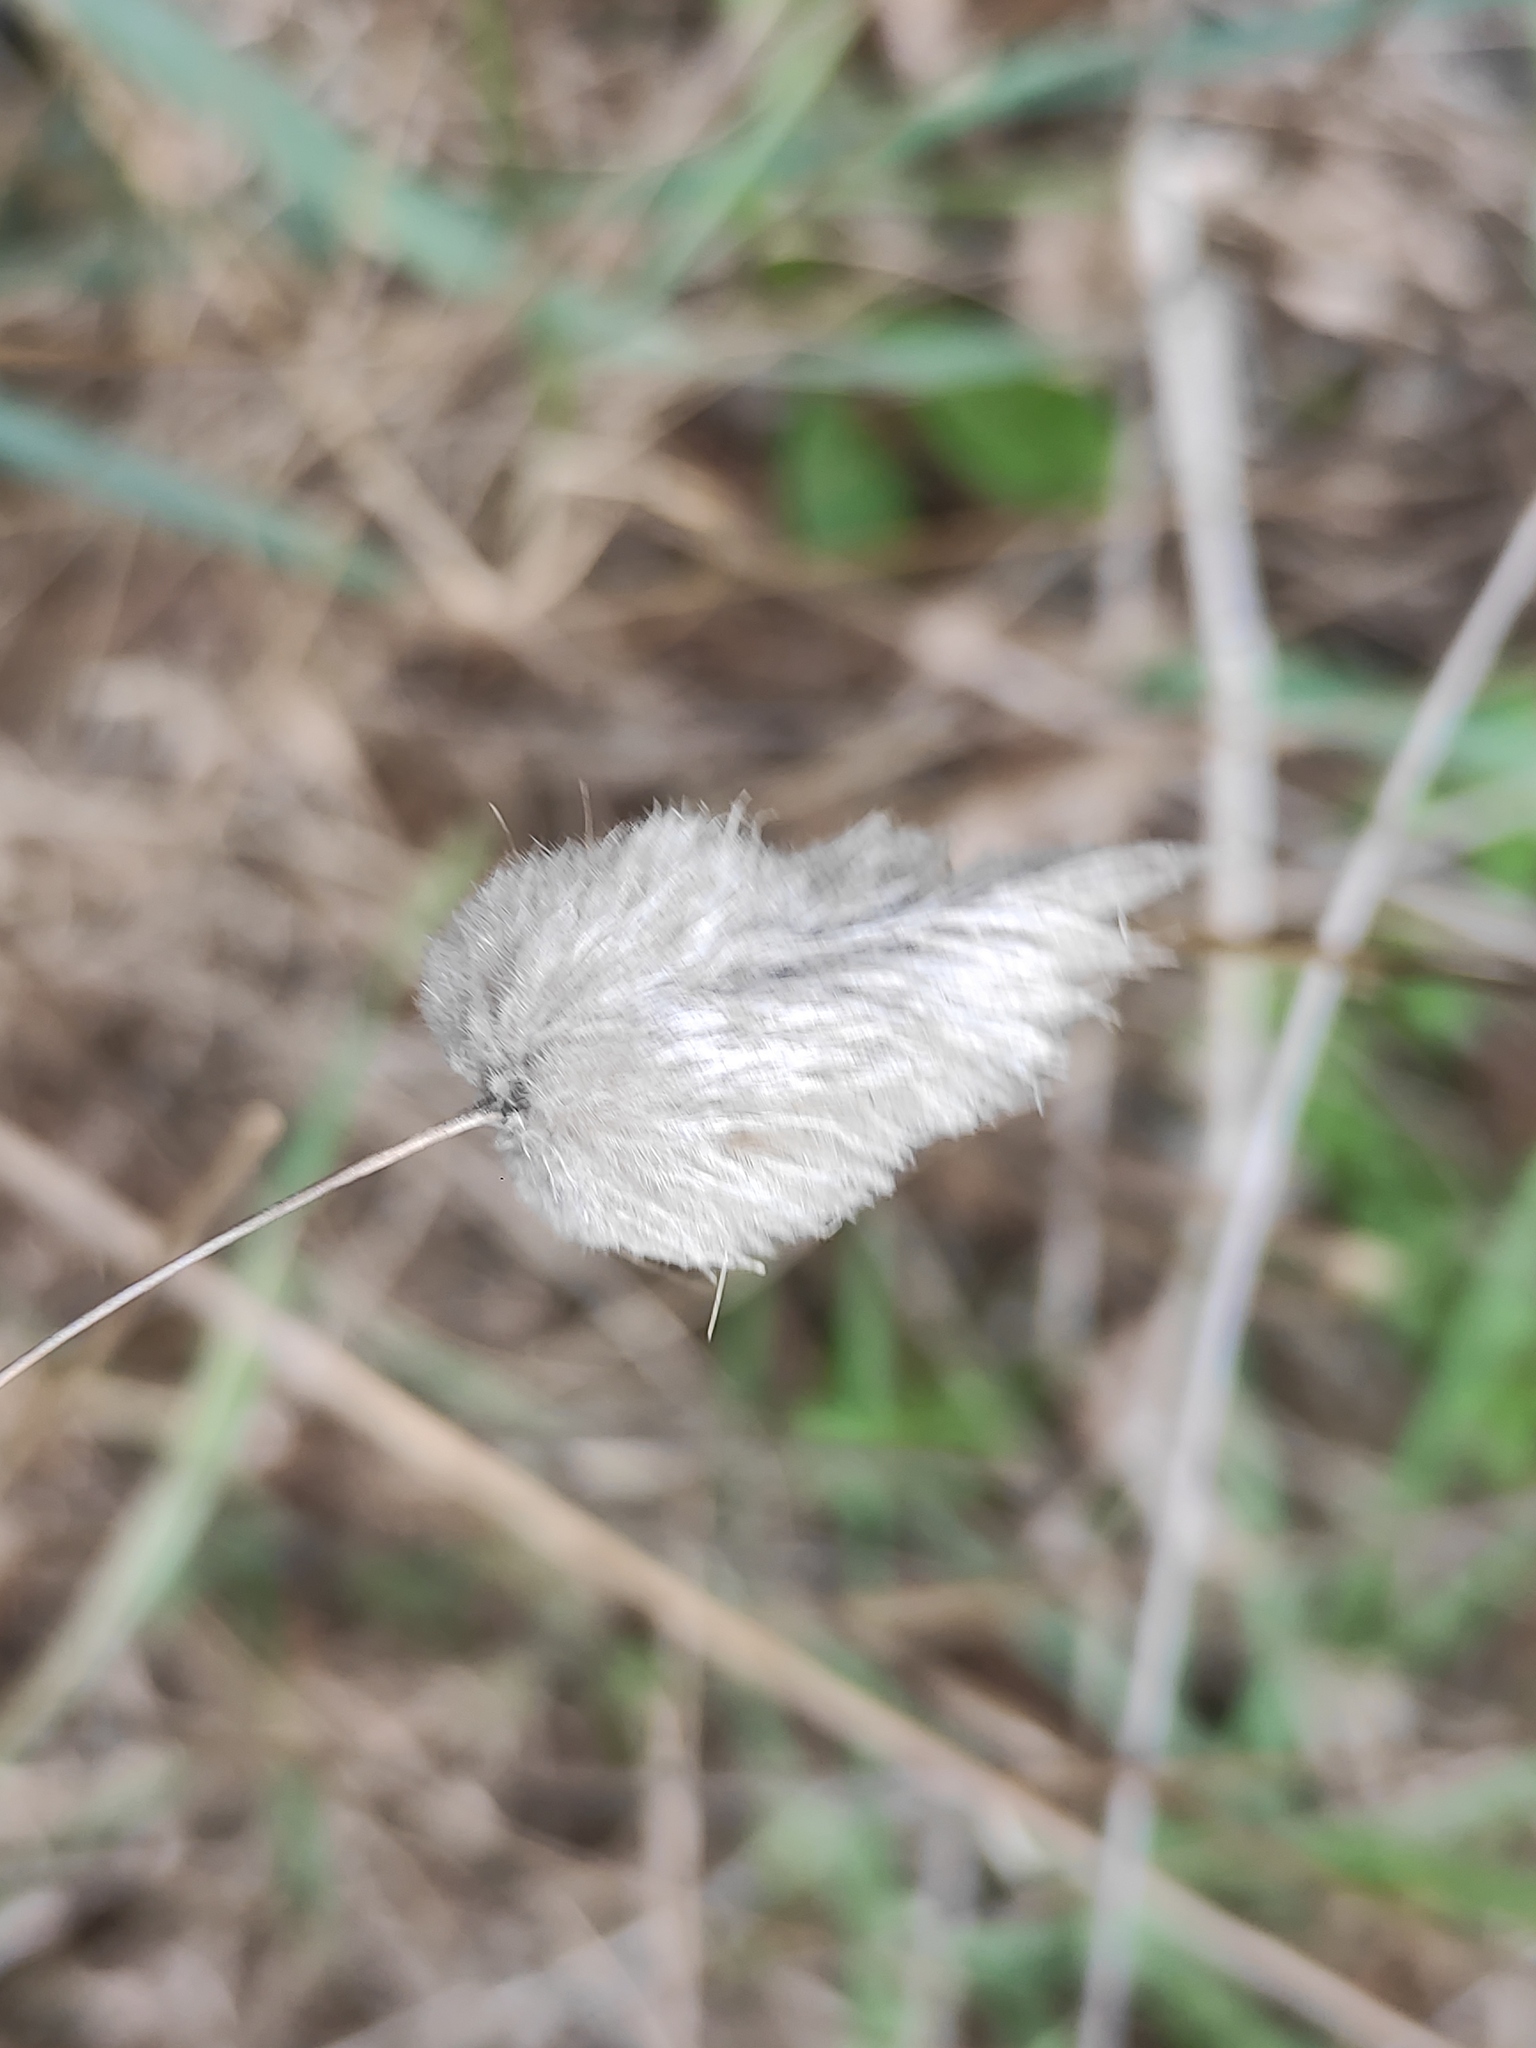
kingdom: Plantae
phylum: Tracheophyta
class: Liliopsida
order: Poales
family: Poaceae
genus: Lagurus
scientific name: Lagurus ovatus
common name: Hare's-tail
